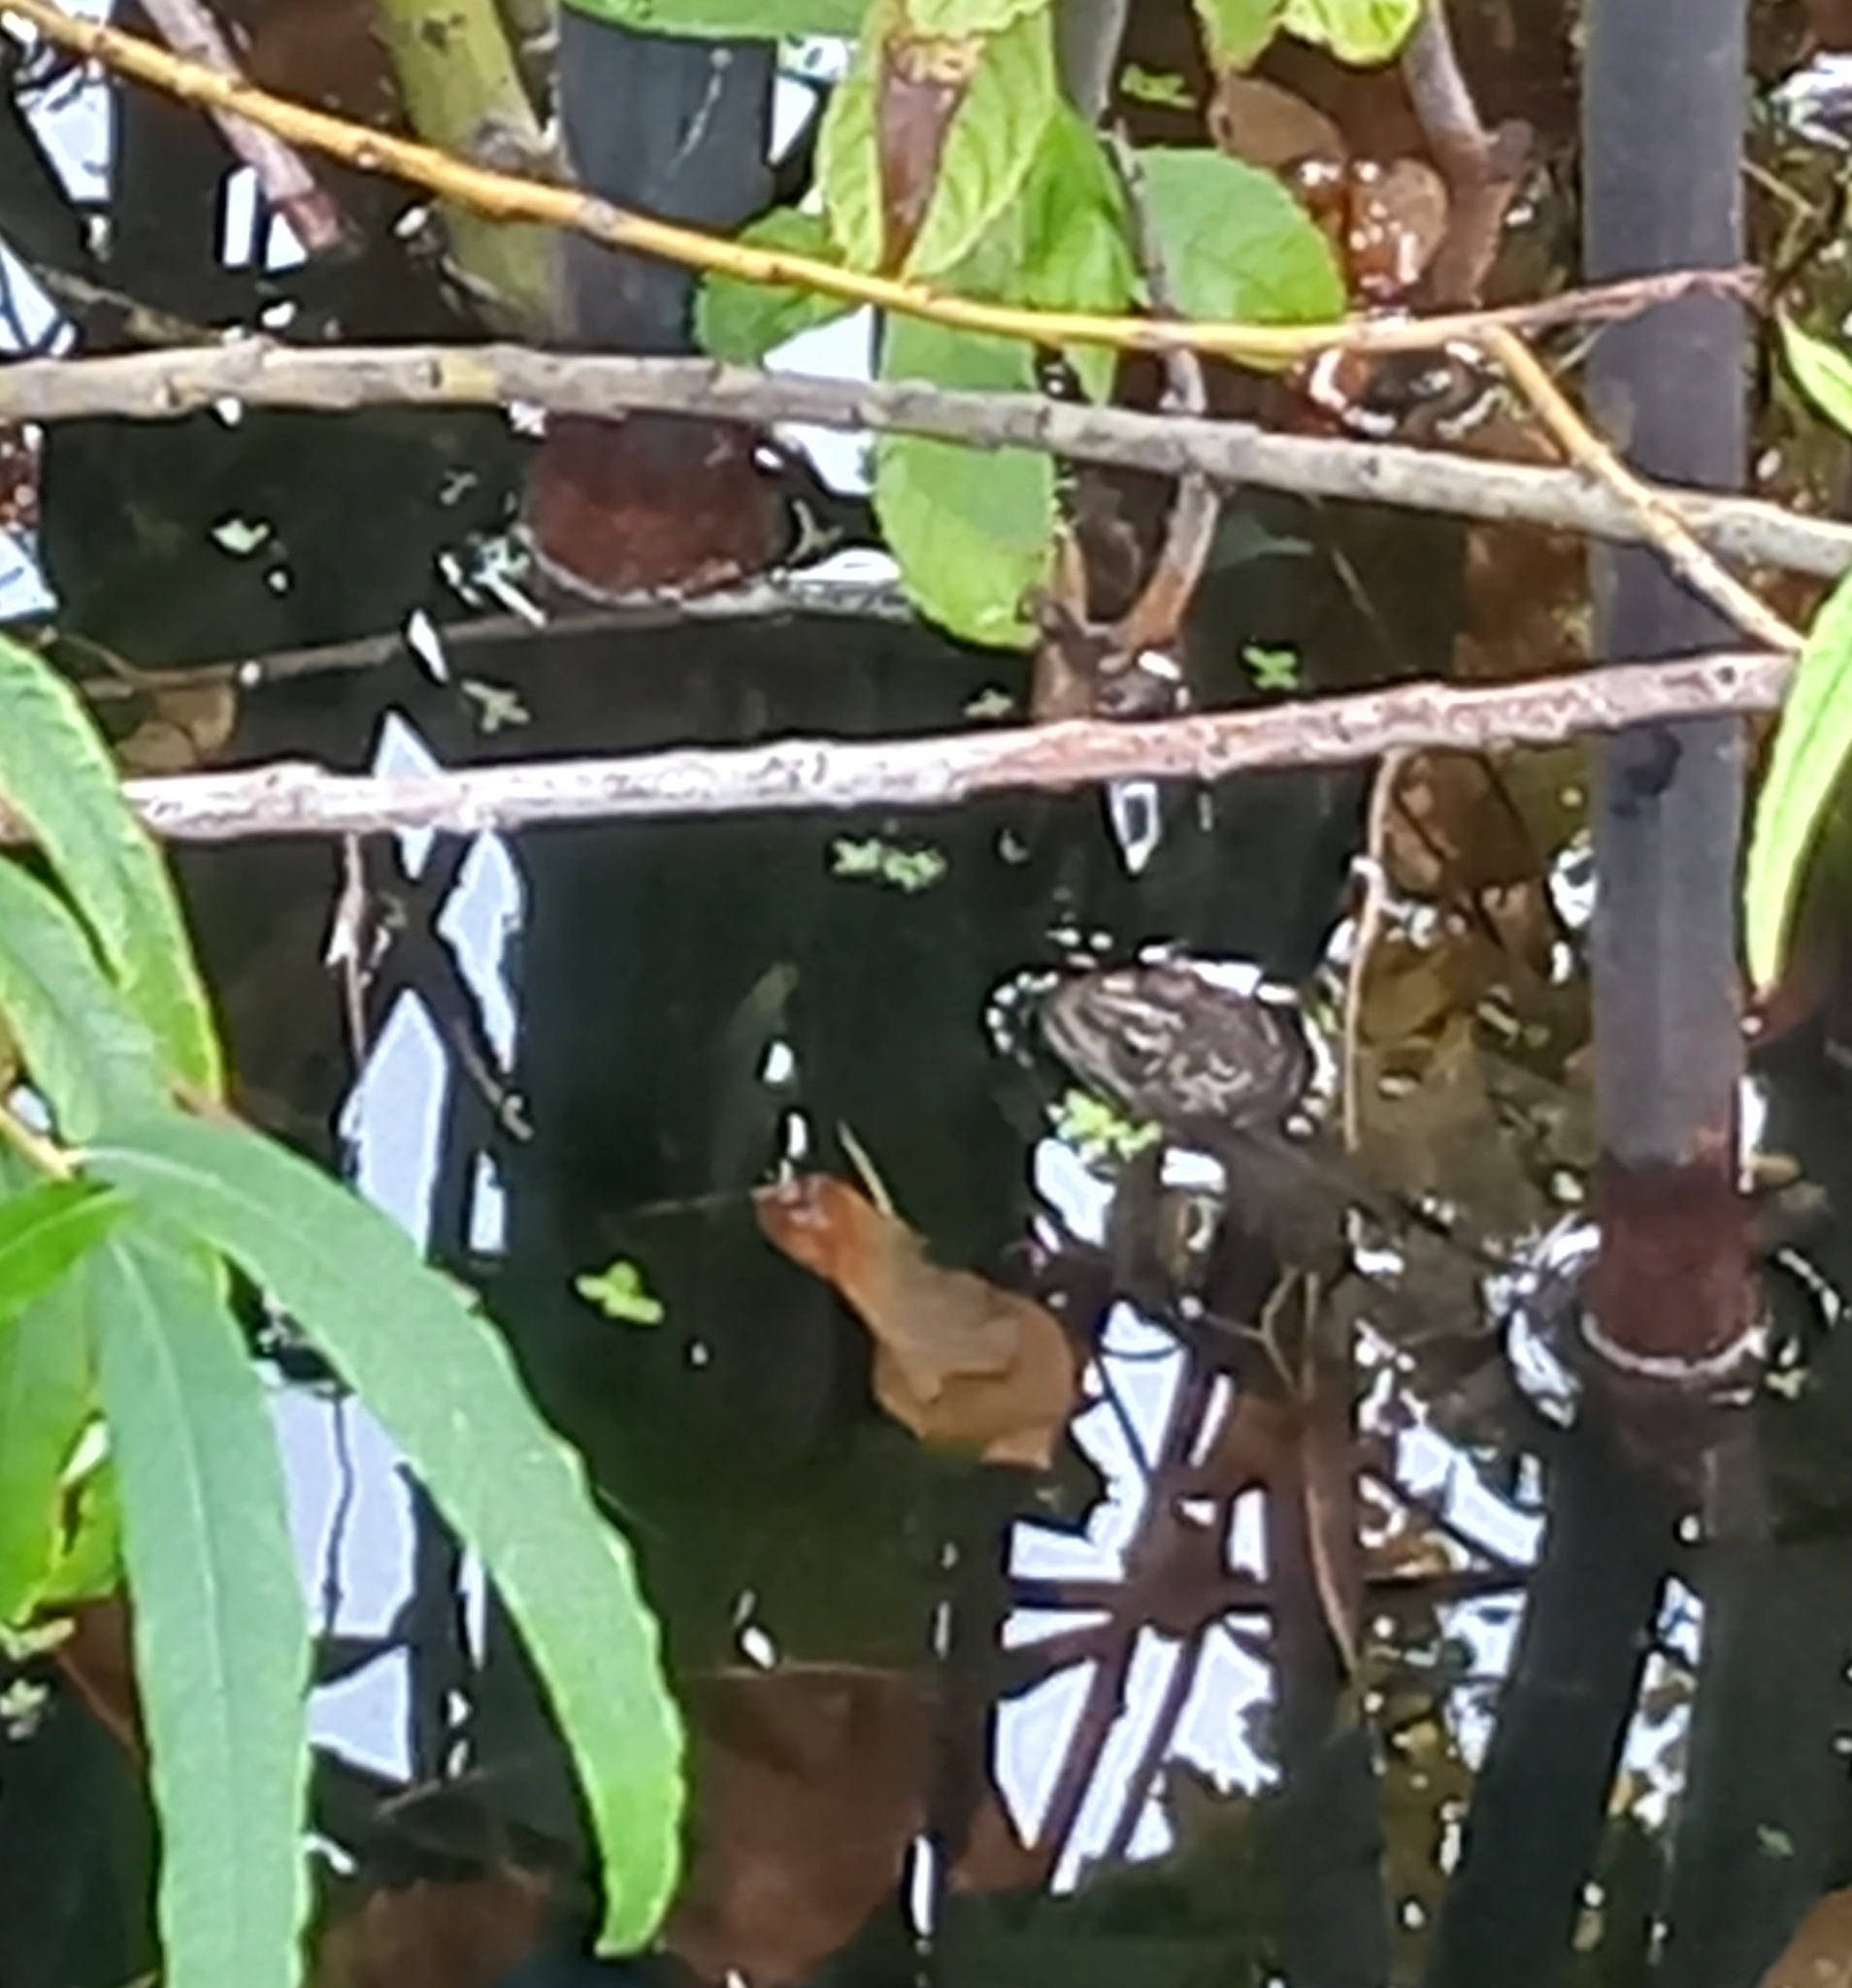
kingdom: Animalia
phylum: Chordata
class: Amphibia
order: Anura
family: Ranidae
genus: Pelophylax
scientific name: Pelophylax
